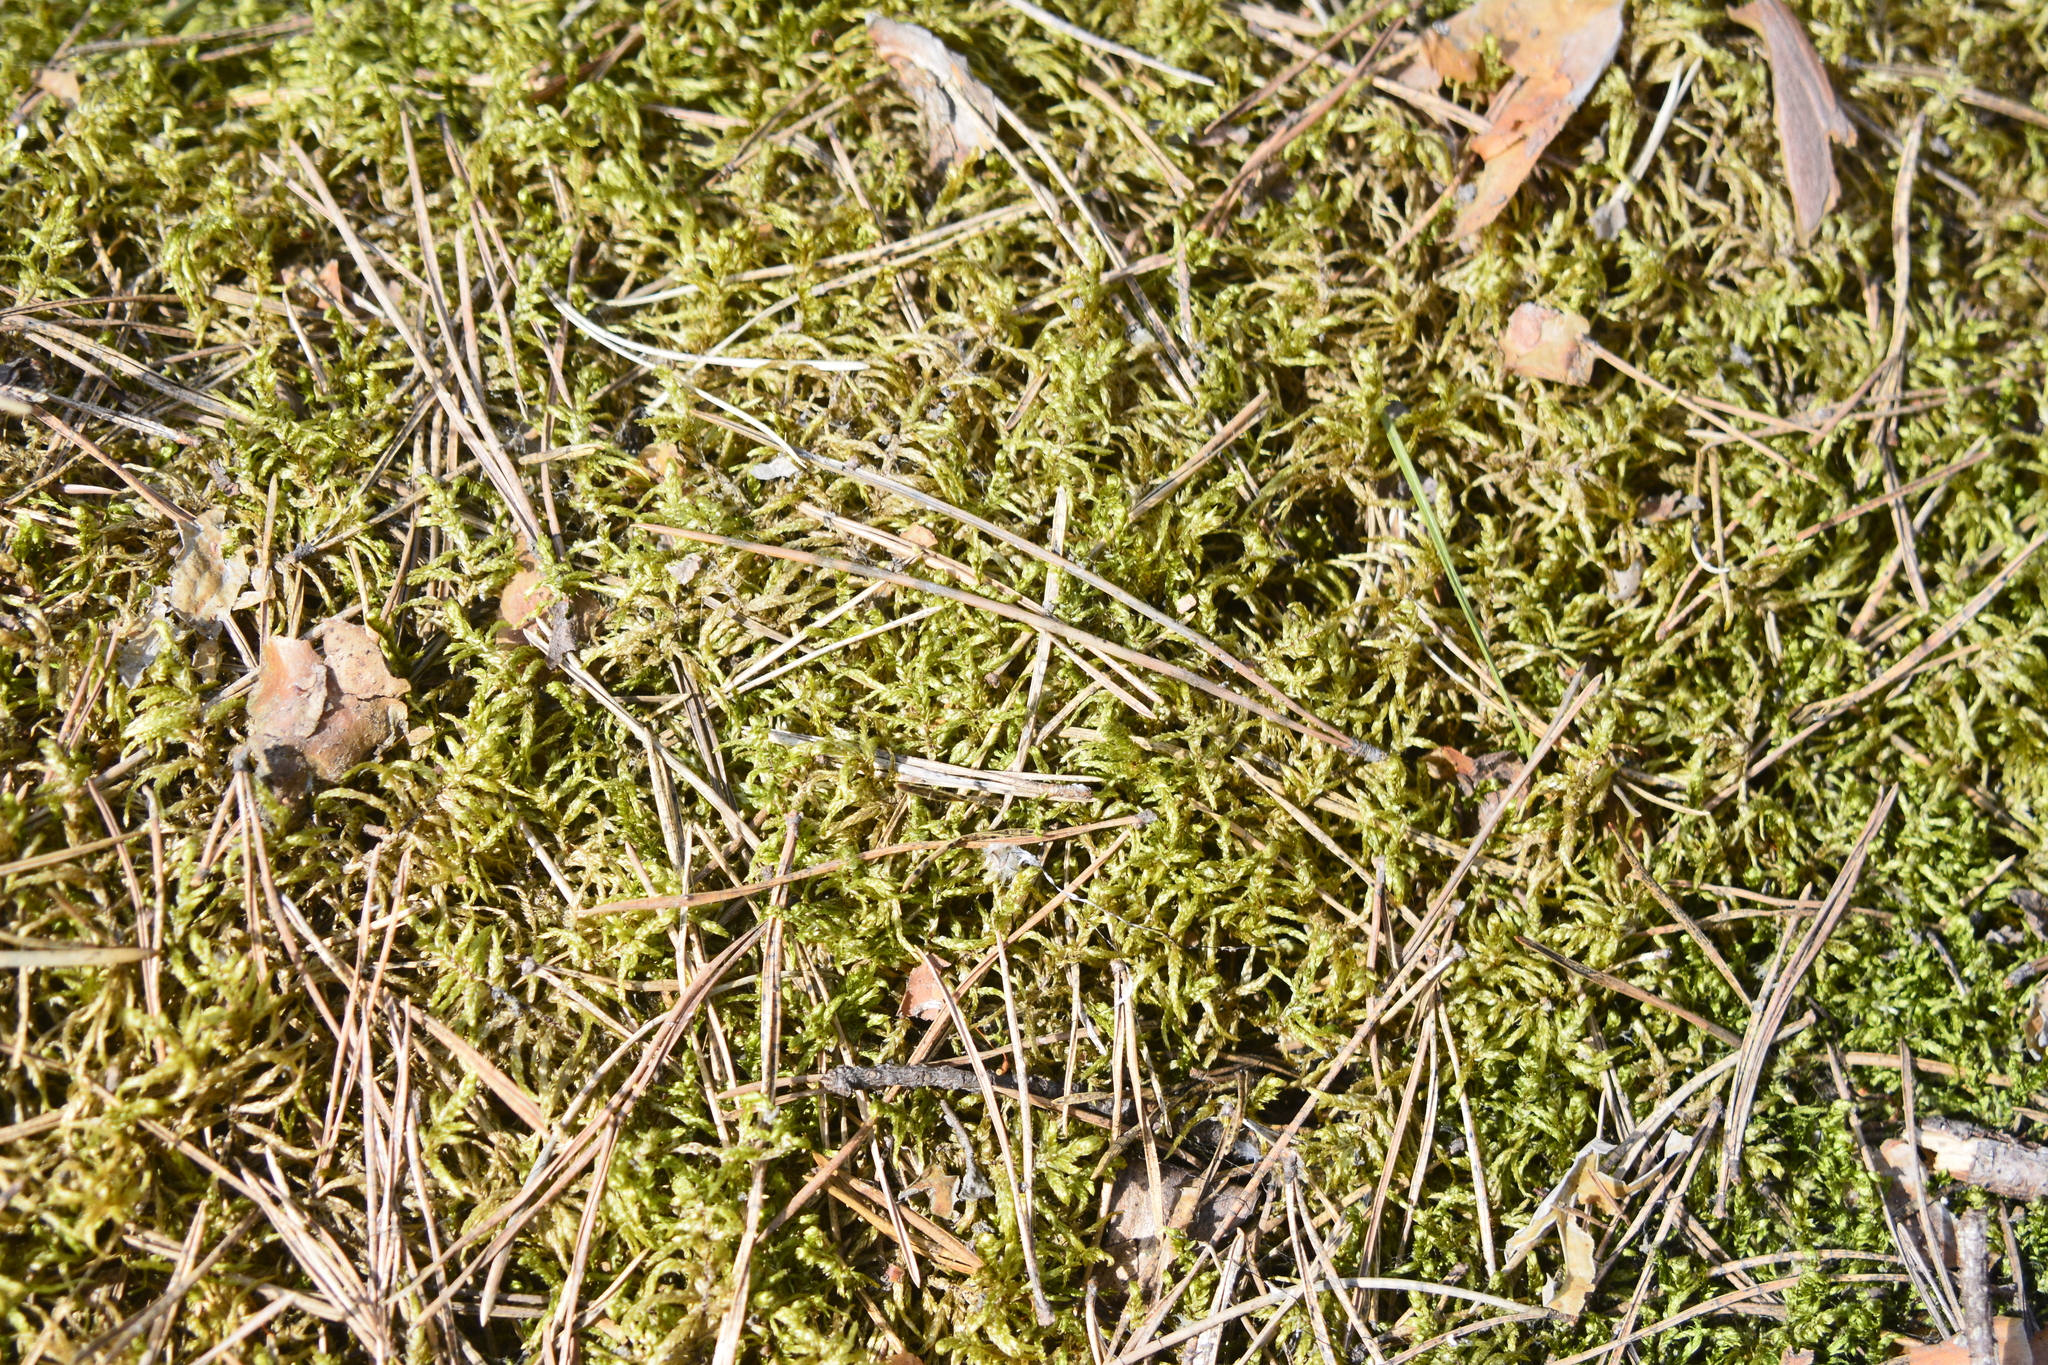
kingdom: Plantae
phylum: Bryophyta
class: Bryopsida
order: Hypnales
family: Hylocomiaceae
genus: Pleurozium
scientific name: Pleurozium schreberi
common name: Red-stemmed feather moss
